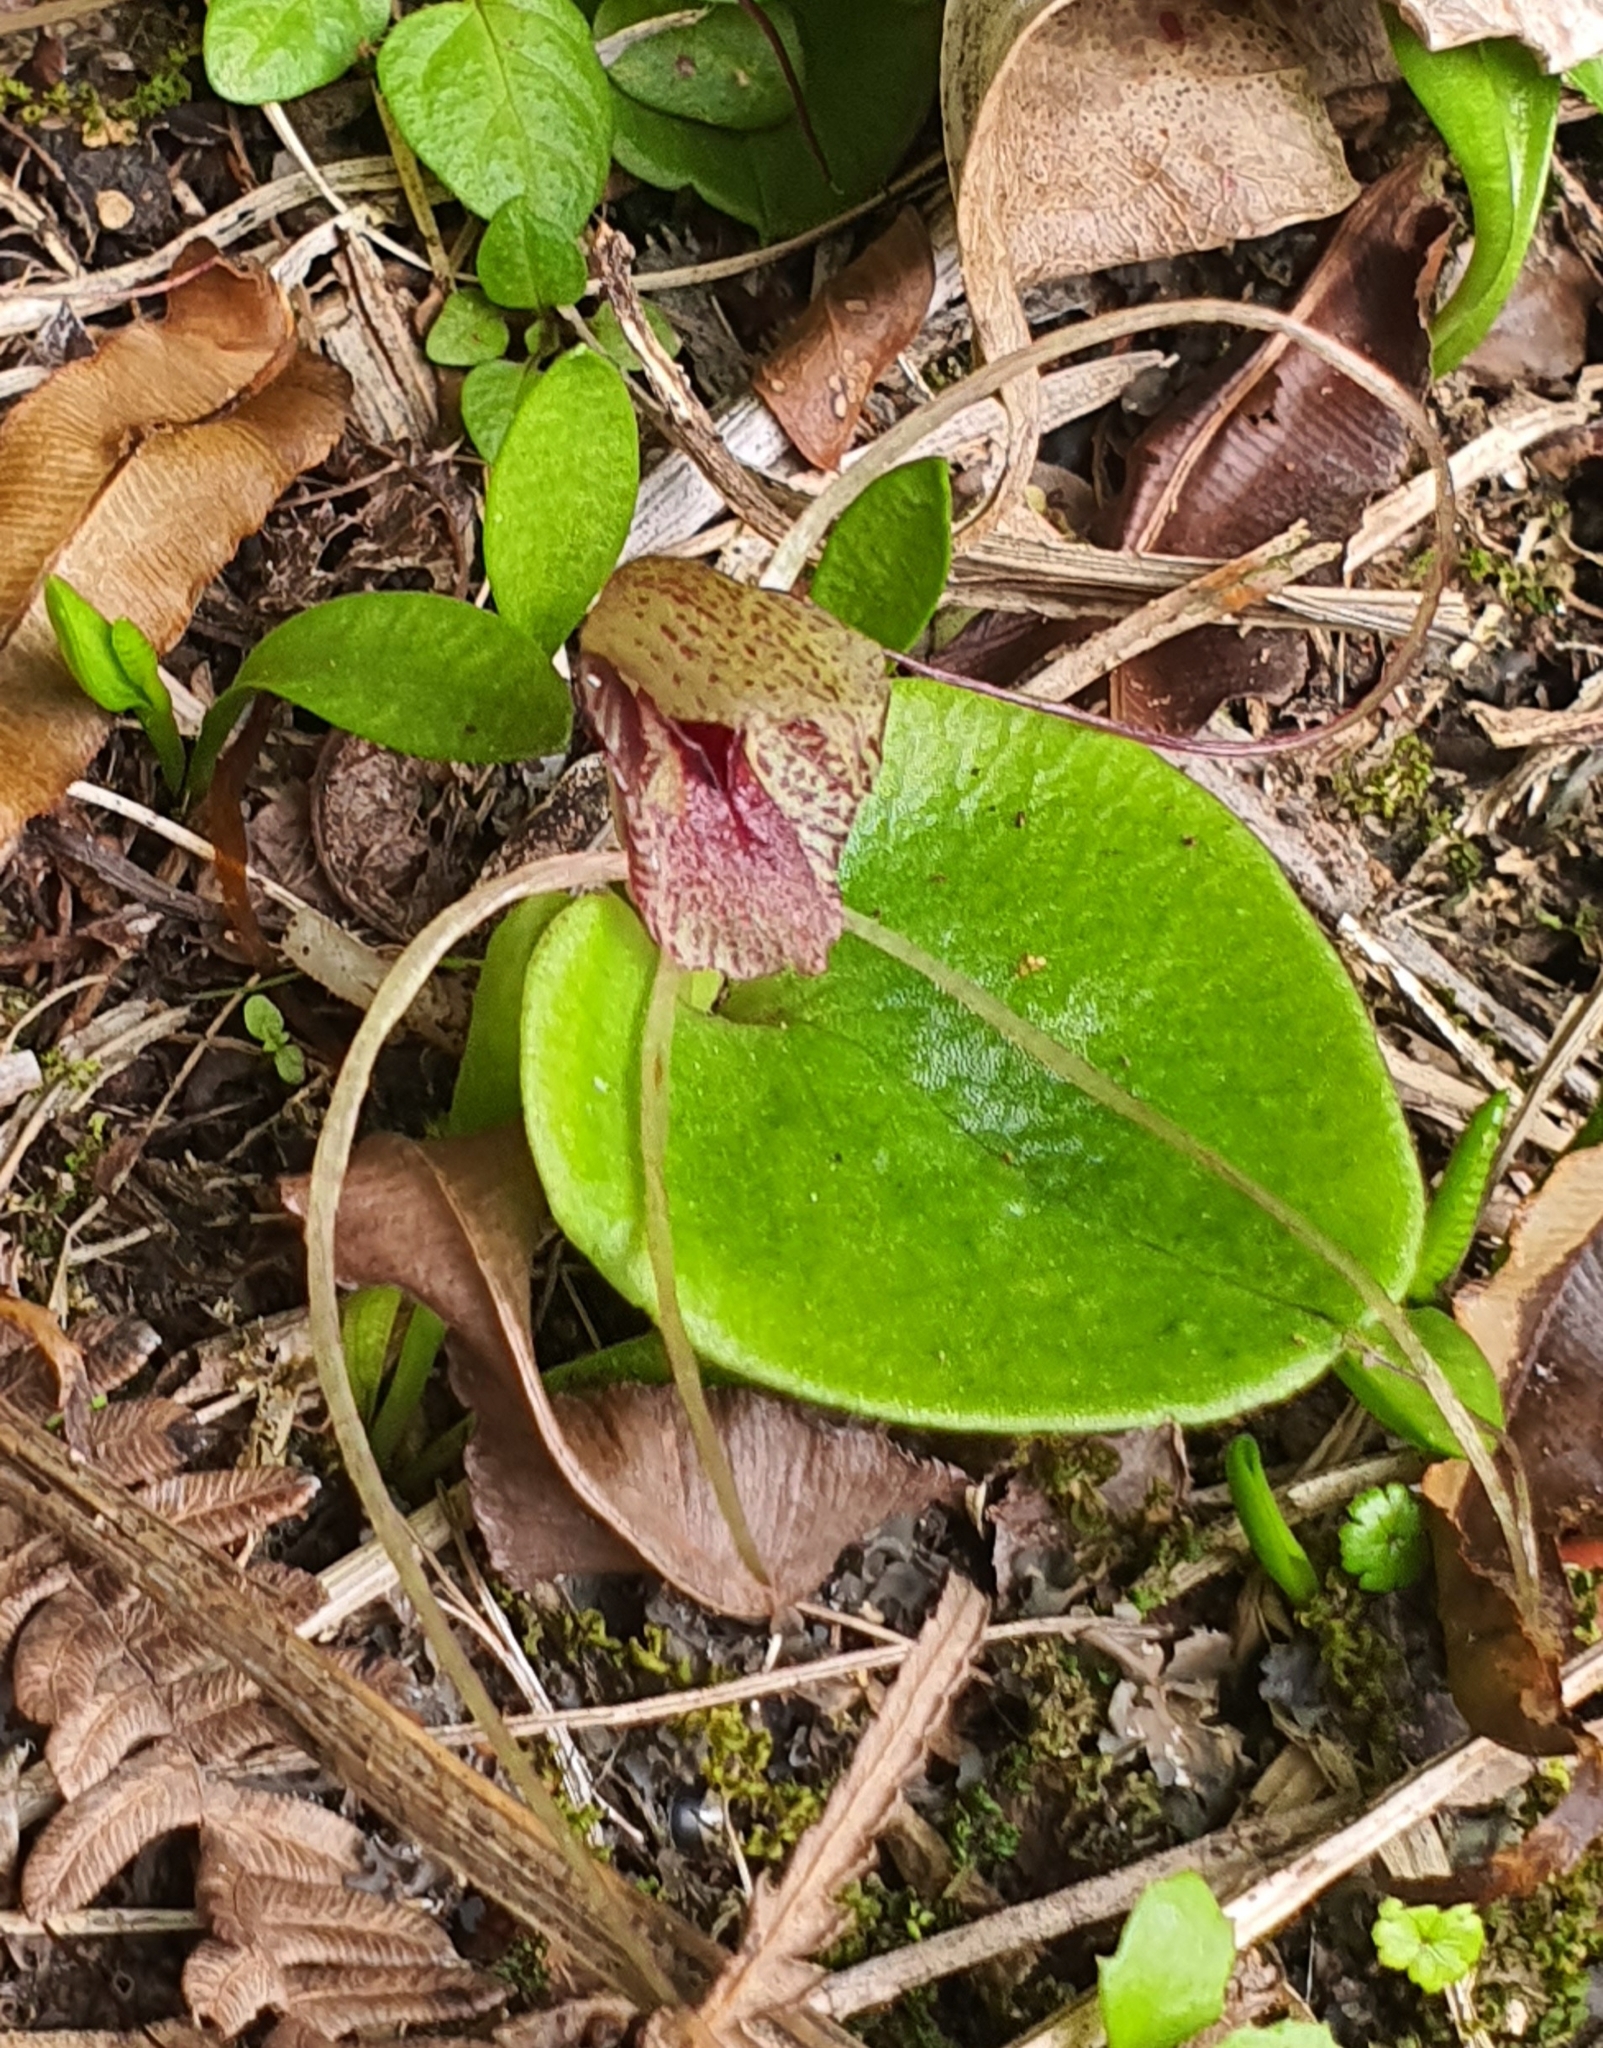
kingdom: Plantae
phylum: Tracheophyta
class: Liliopsida
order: Asparagales
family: Orchidaceae
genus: Corybas
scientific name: Corybas iridescens
